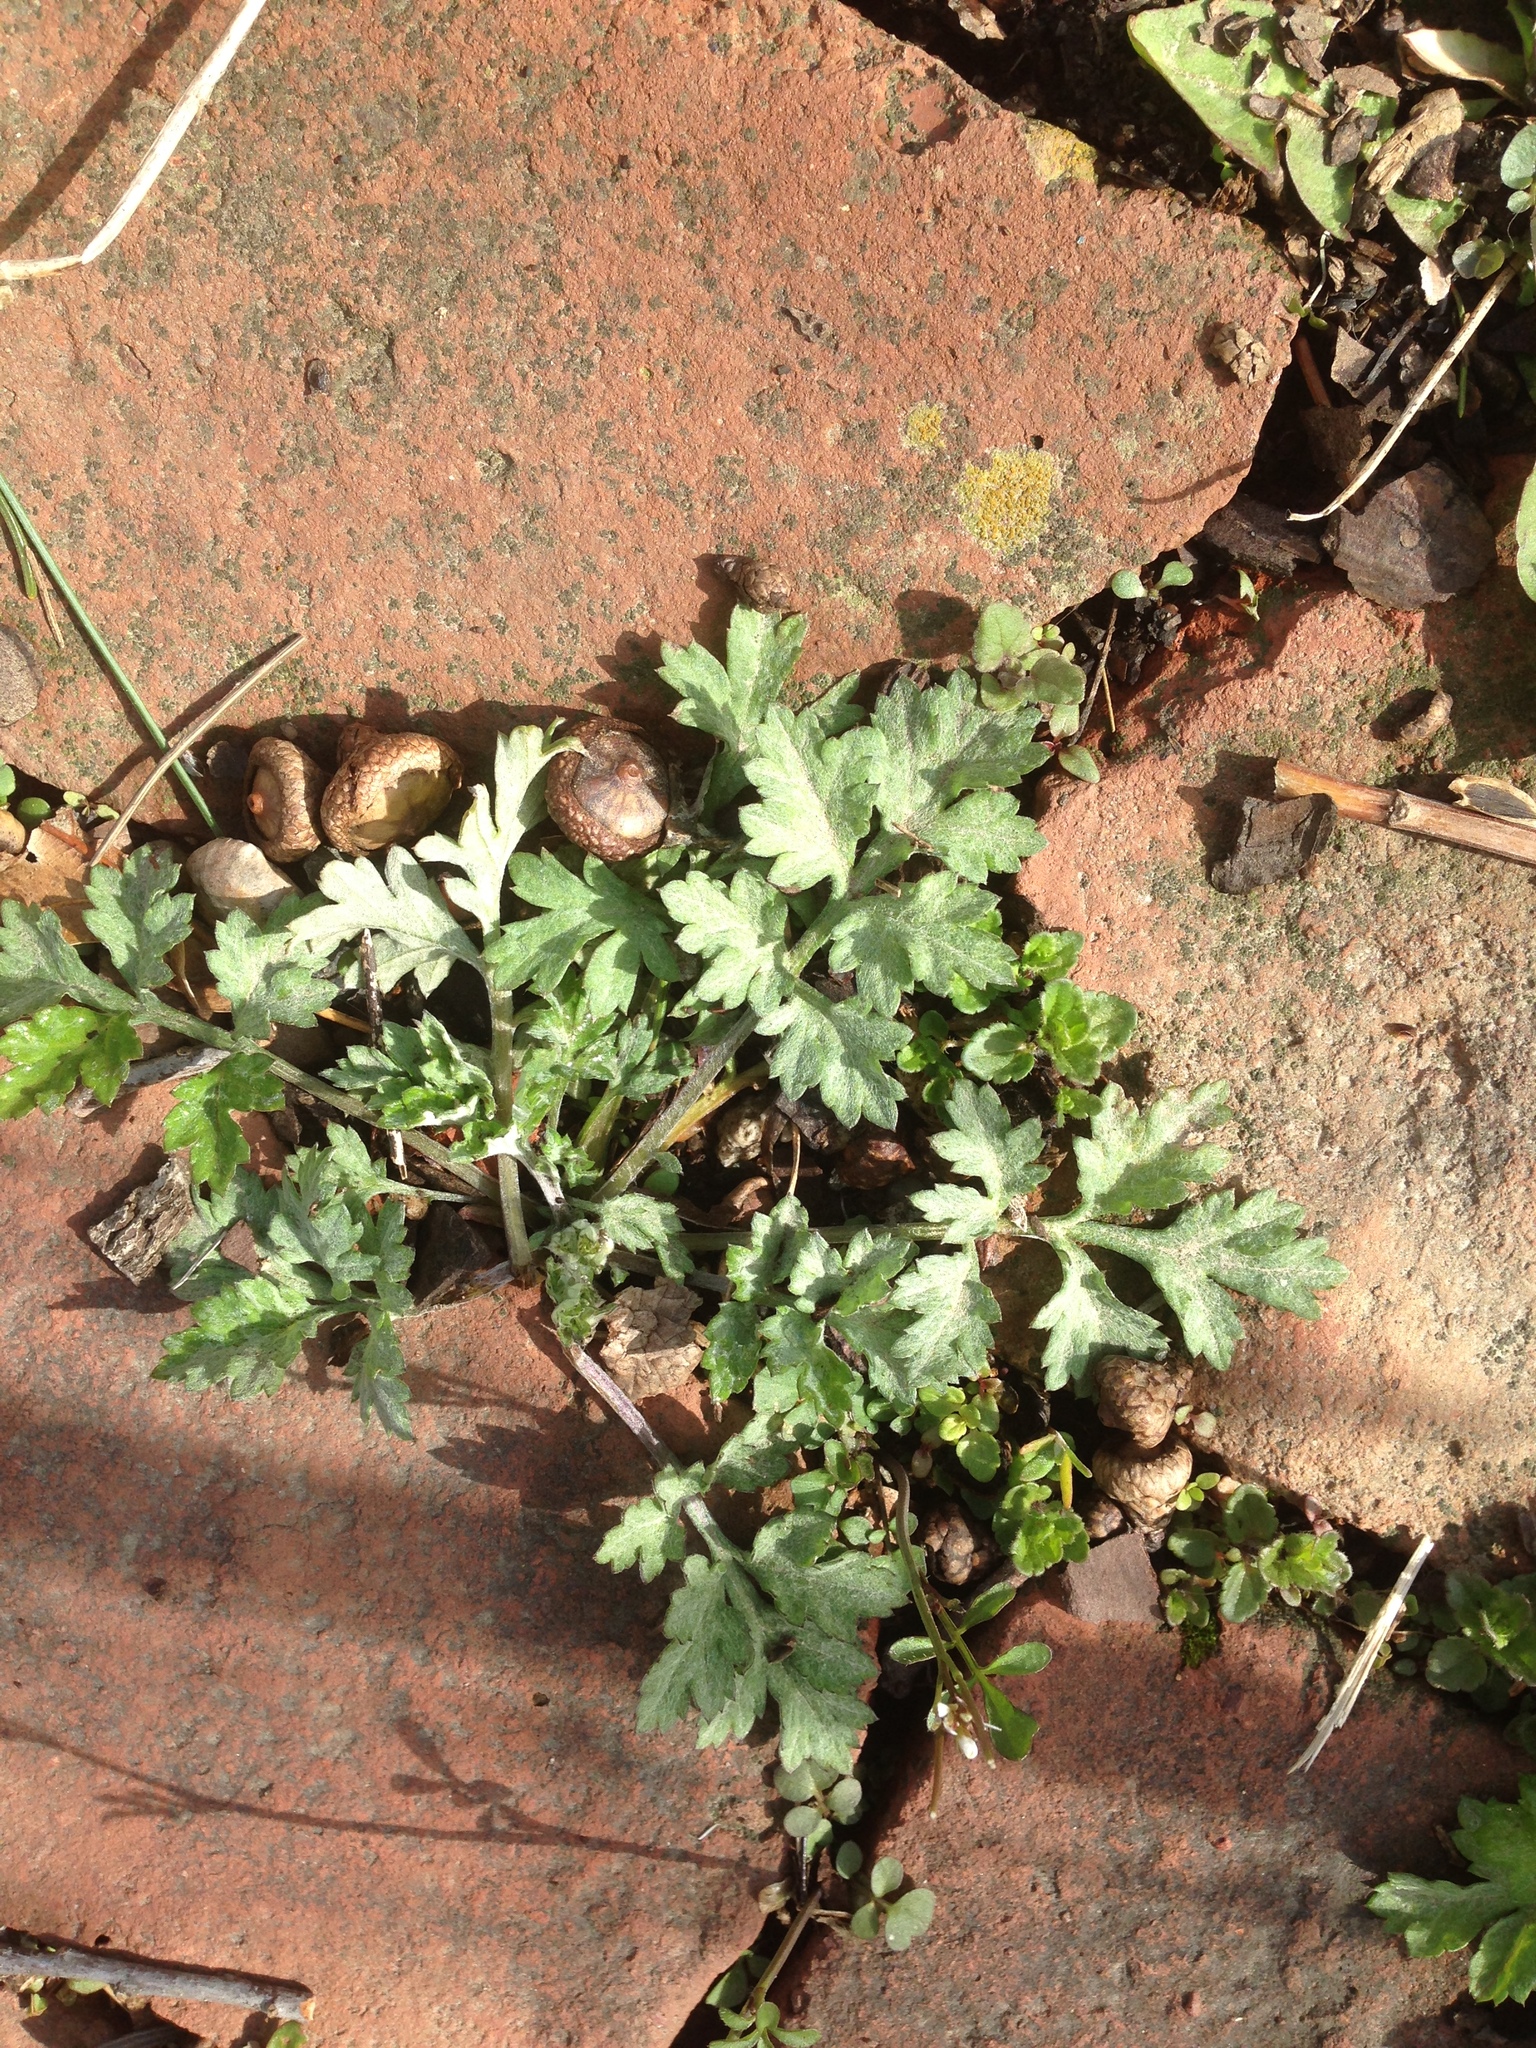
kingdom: Plantae
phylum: Tracheophyta
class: Magnoliopsida
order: Asterales
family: Asteraceae
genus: Artemisia
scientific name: Artemisia vulgaris
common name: Mugwort
